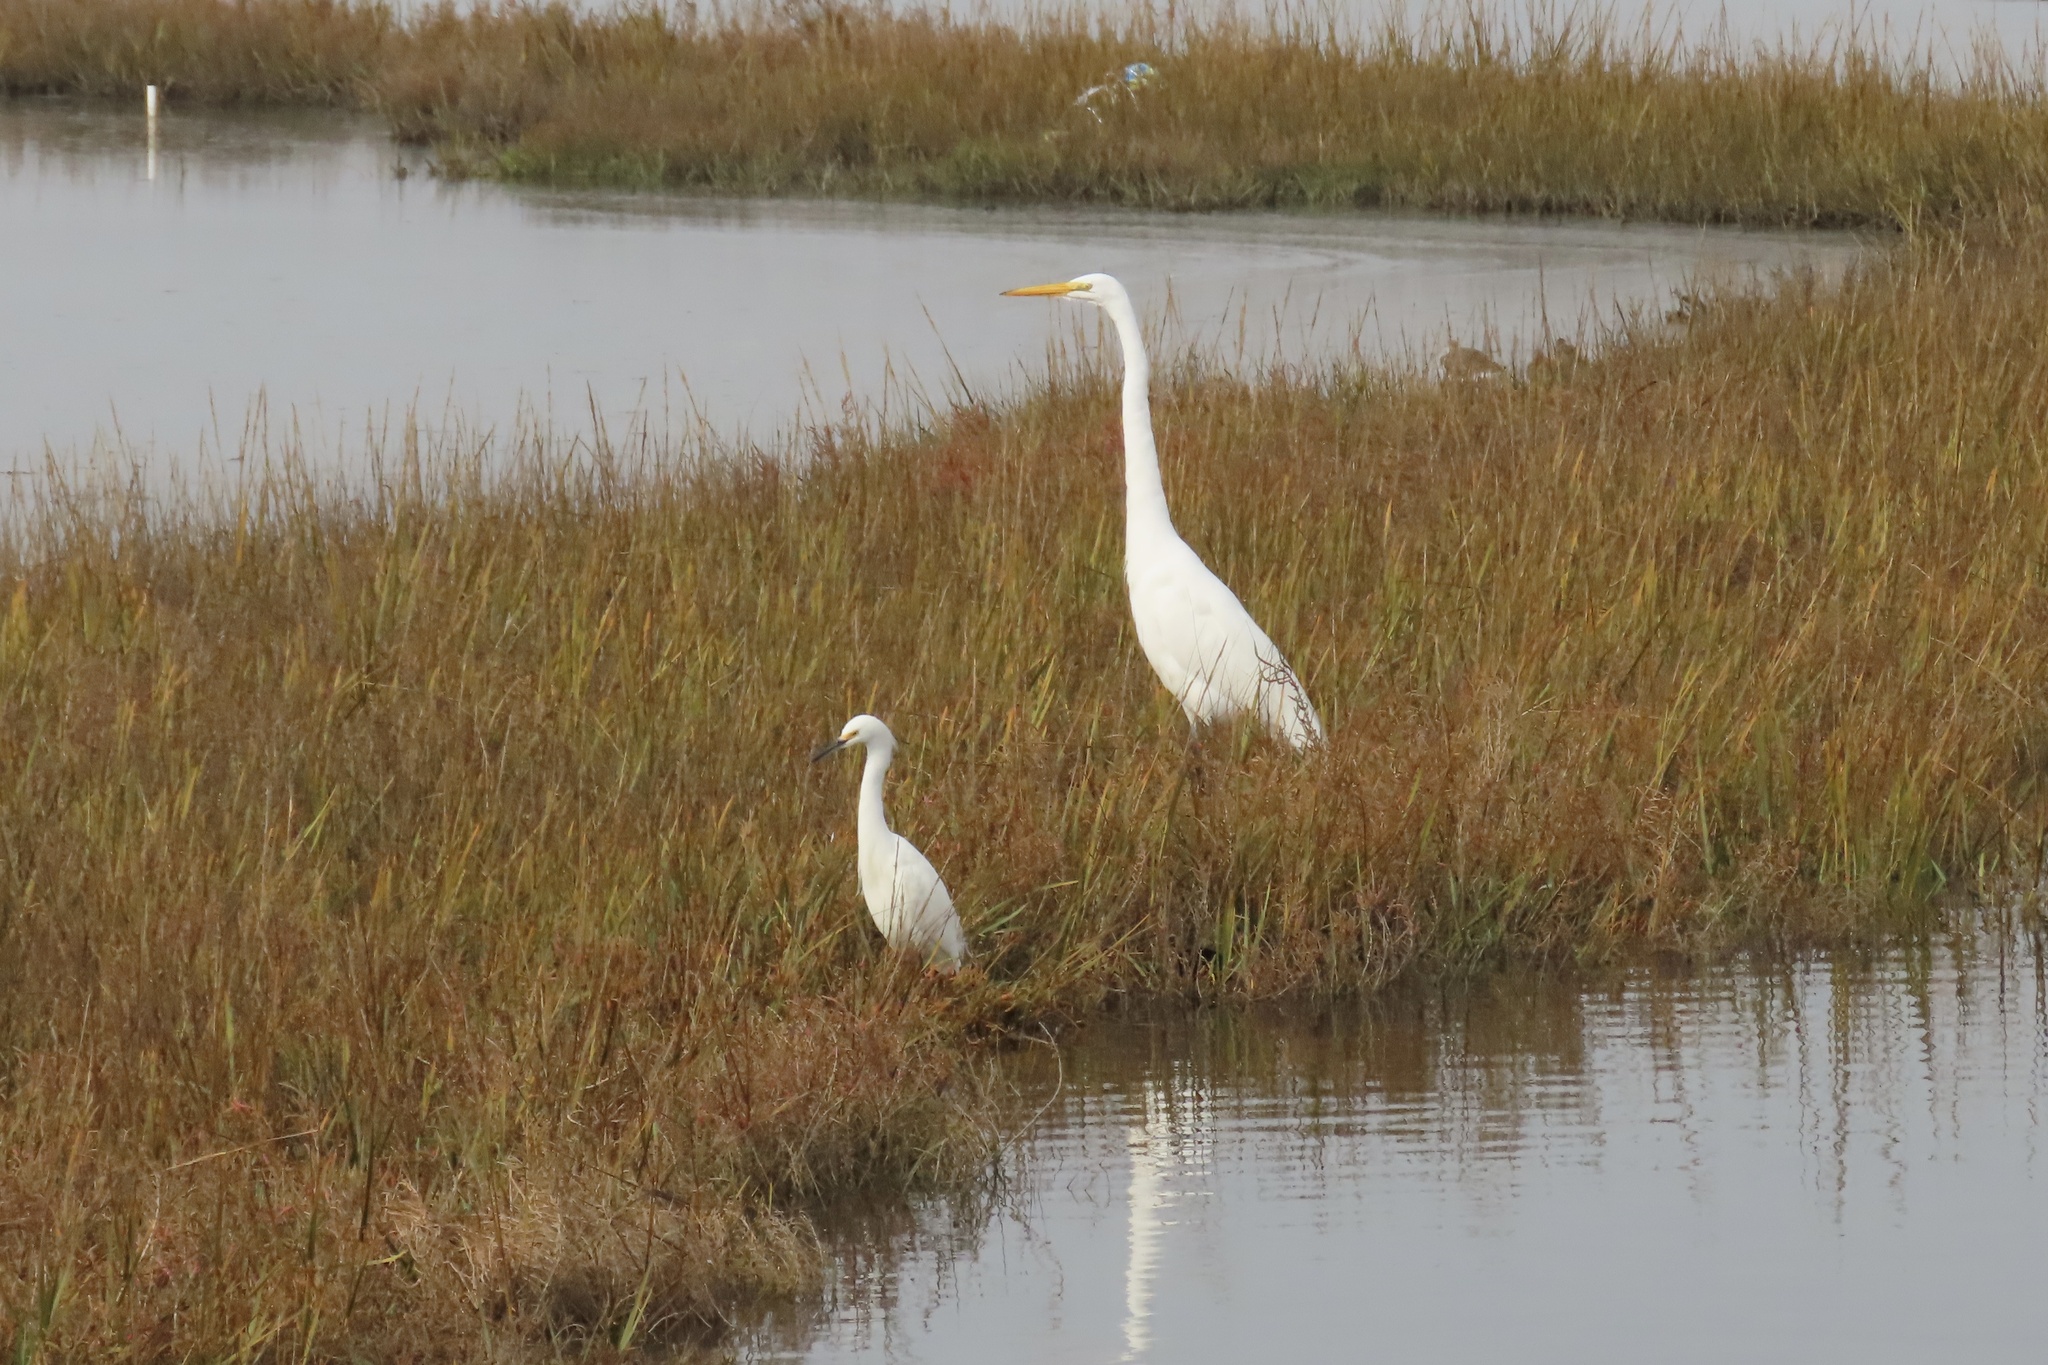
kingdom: Animalia
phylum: Chordata
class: Aves
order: Pelecaniformes
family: Ardeidae
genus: Ardea
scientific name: Ardea alba
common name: Great egret
